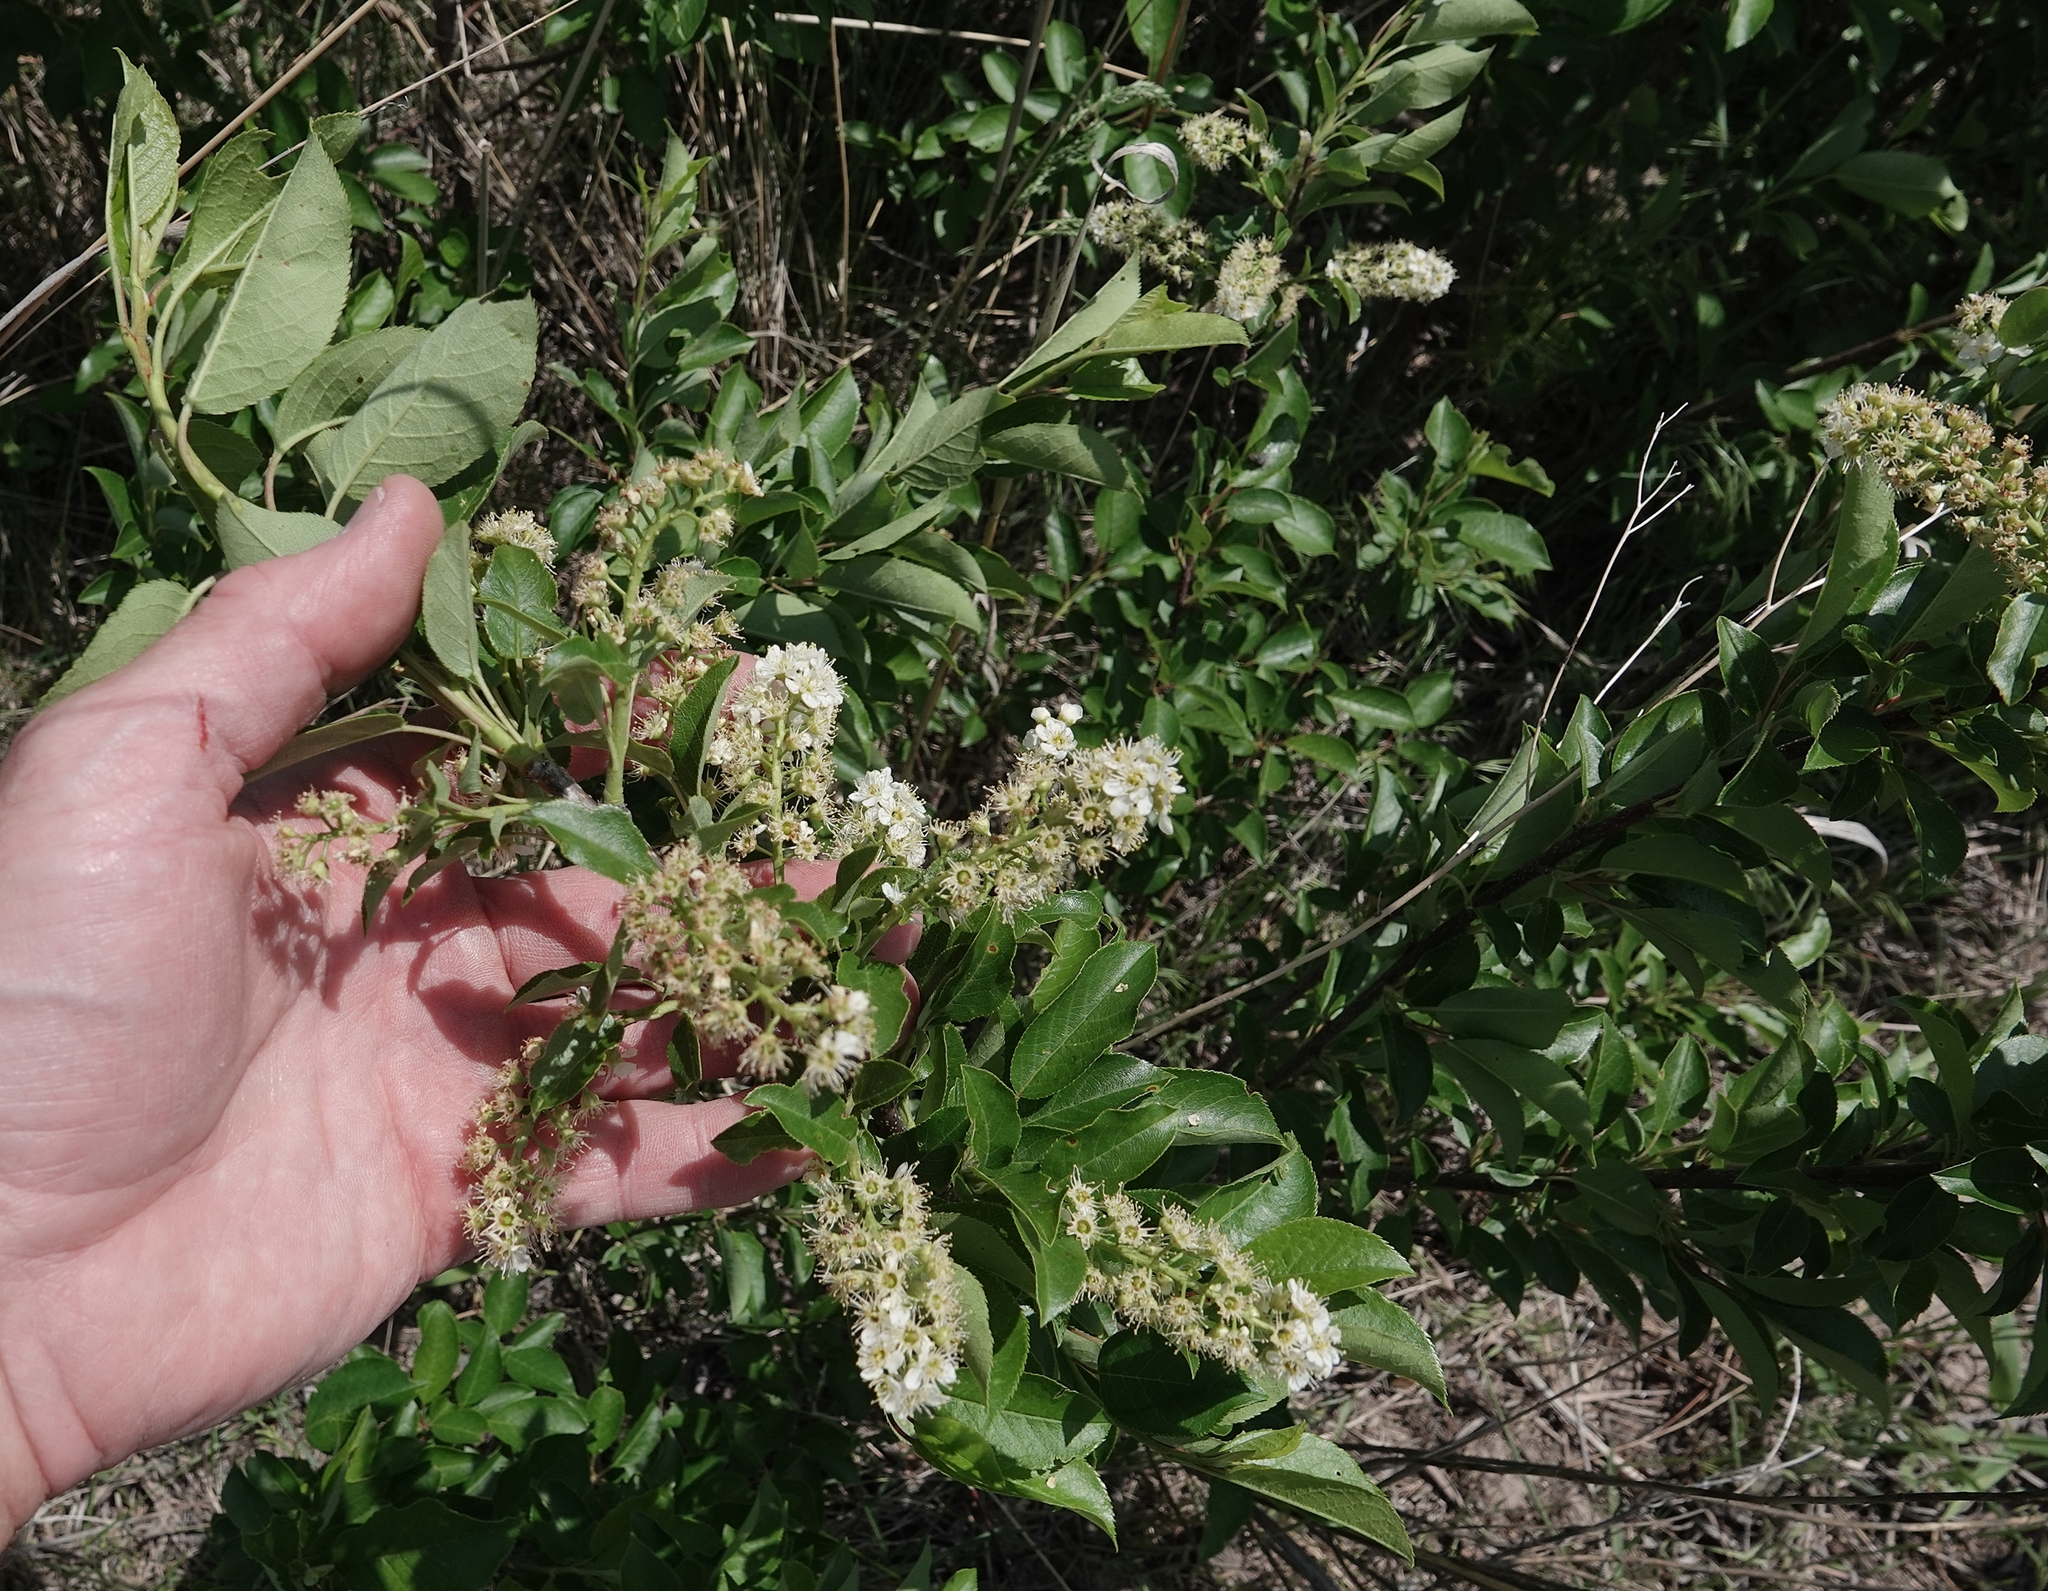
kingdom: Plantae
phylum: Tracheophyta
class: Magnoliopsida
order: Rosales
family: Rosaceae
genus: Prunus
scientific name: Prunus virginiana
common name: Chokecherry
